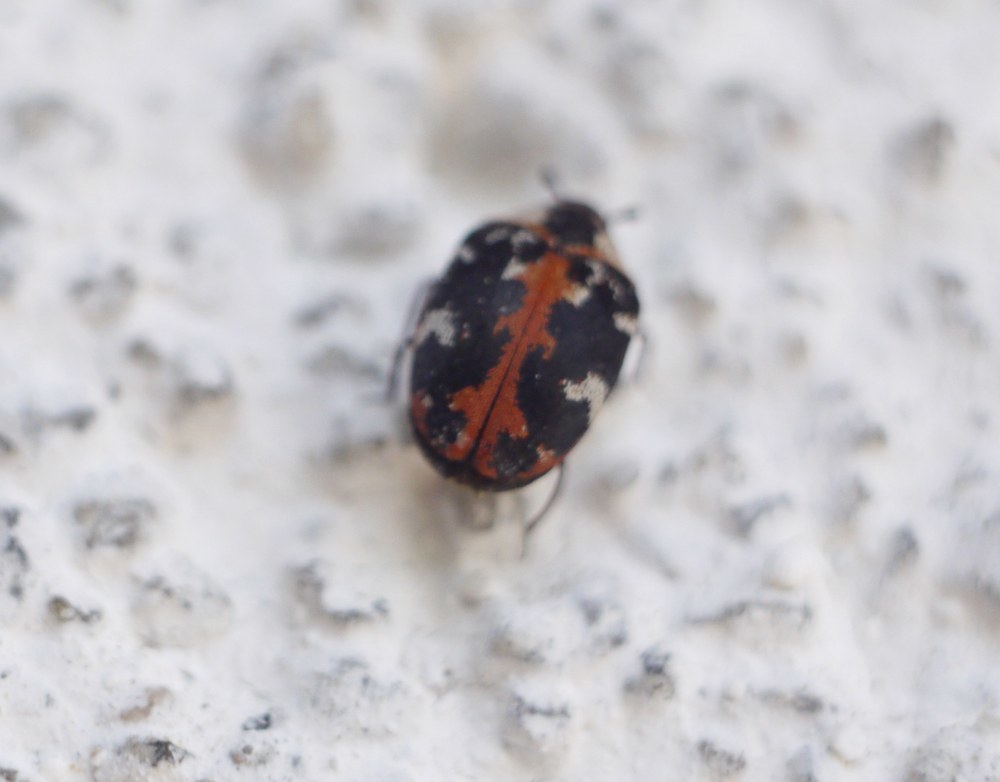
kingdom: Animalia
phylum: Arthropoda
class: Insecta
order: Coleoptera
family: Dermestidae
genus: Anthrenus
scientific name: Anthrenus scrophulariae
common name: Buffalo carpet beetle
